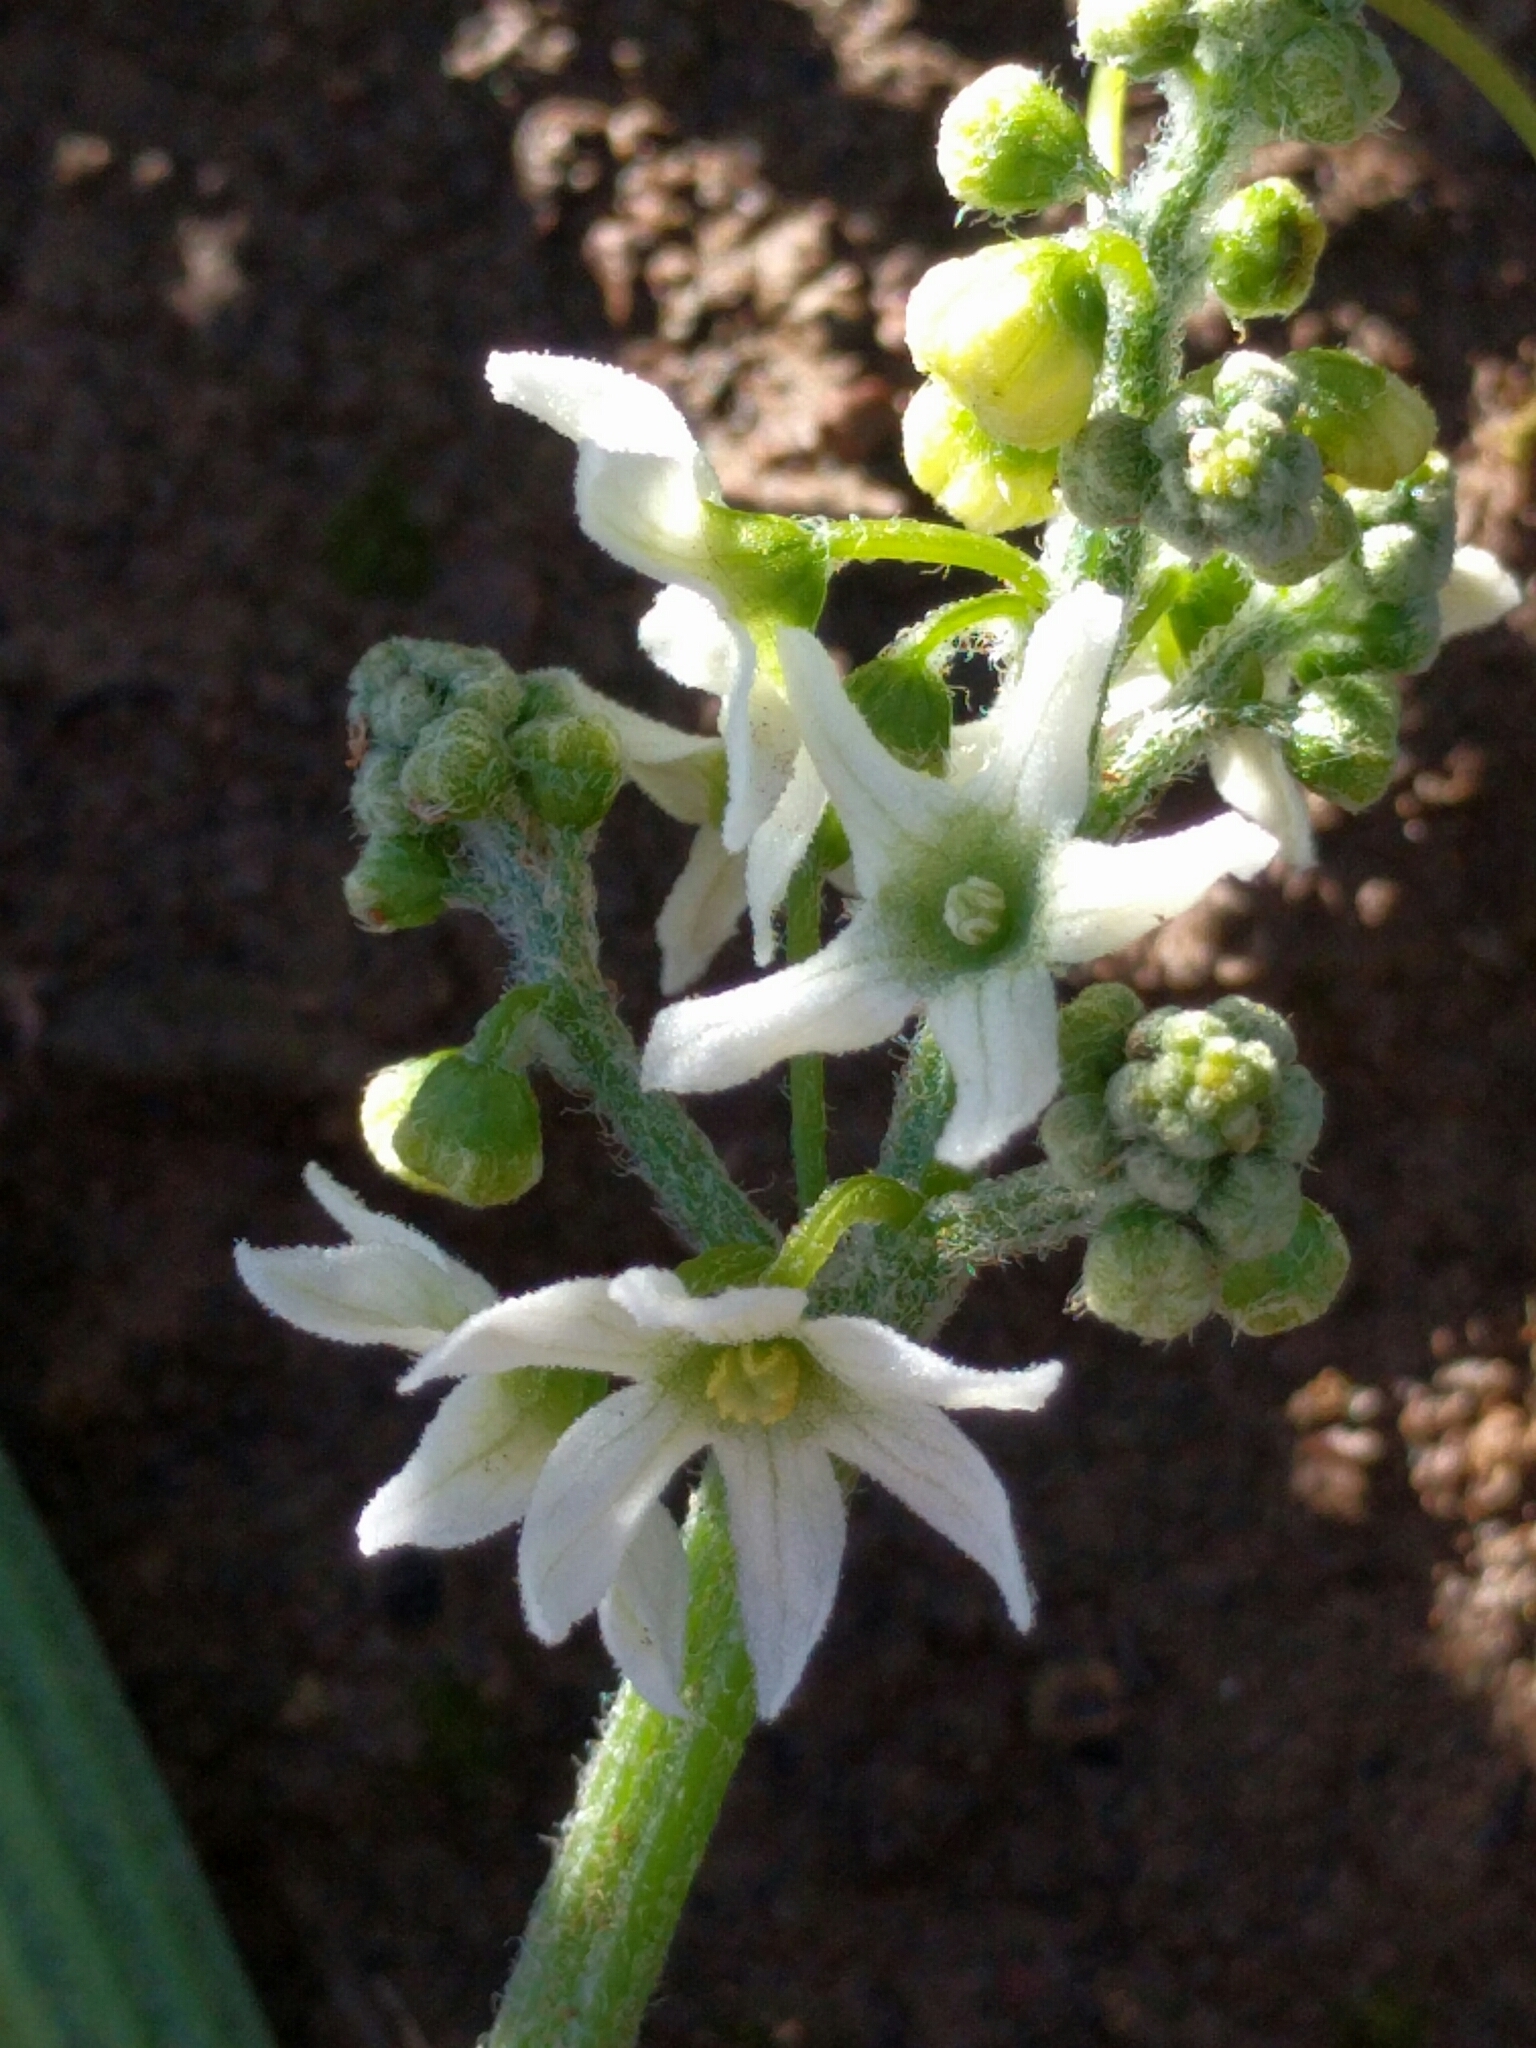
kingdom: Plantae
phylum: Tracheophyta
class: Magnoliopsida
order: Cucurbitales
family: Cucurbitaceae
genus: Marah
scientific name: Marah fabacea
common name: California manroot
